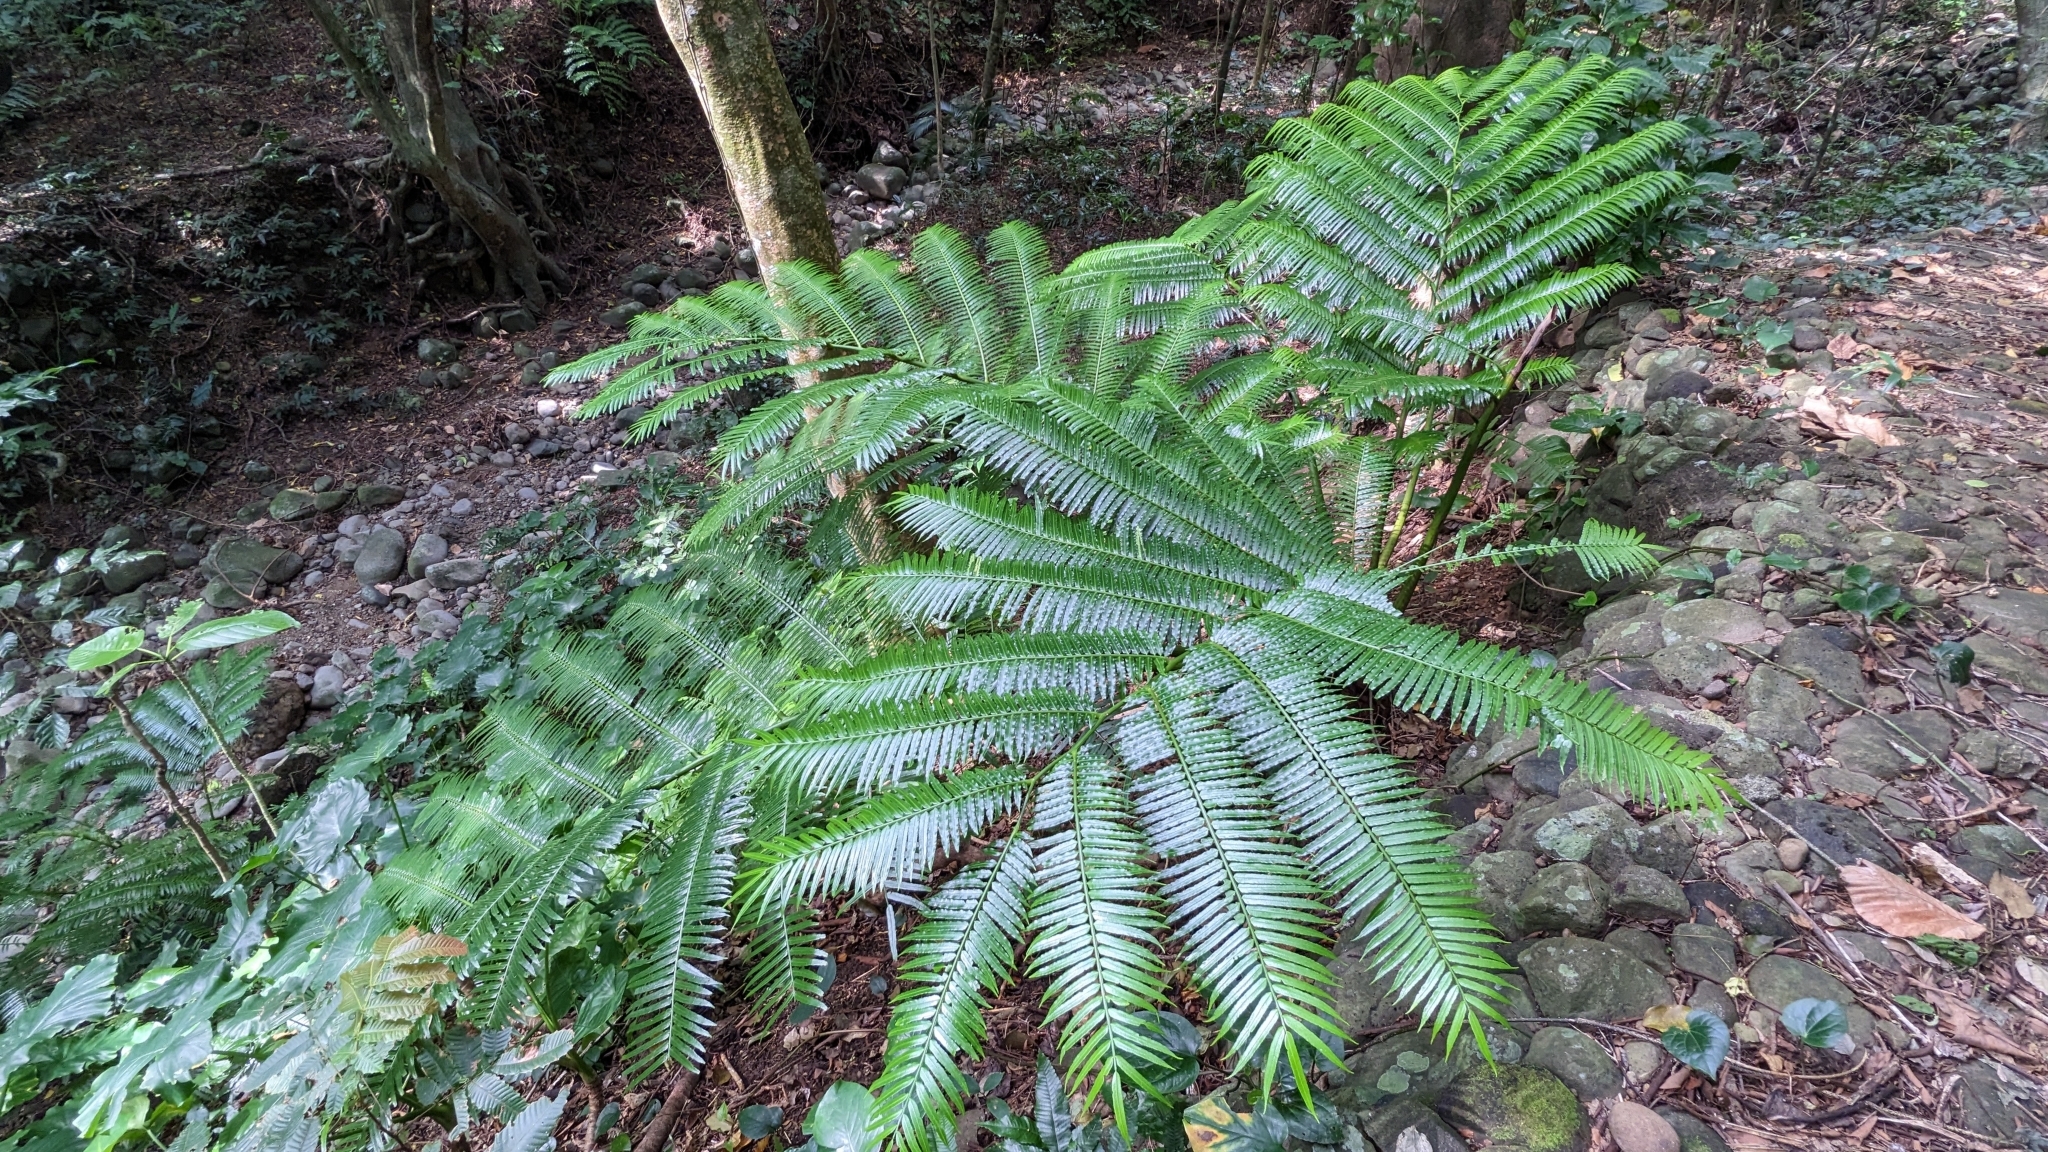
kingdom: Plantae
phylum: Tracheophyta
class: Polypodiopsida
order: Marattiales
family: Marattiaceae
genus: Angiopteris
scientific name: Angiopteris evecta
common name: Mule's-foot fern
